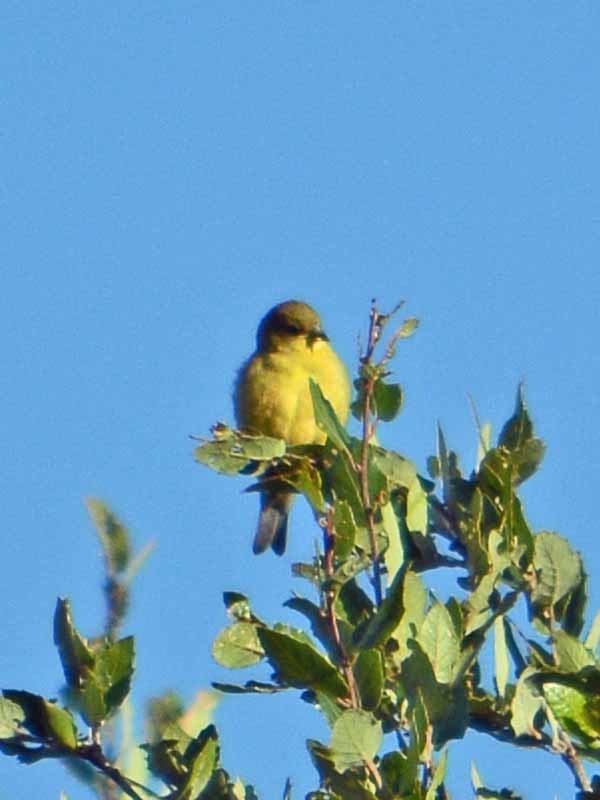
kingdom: Animalia
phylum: Chordata
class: Aves
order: Passeriformes
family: Fringillidae
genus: Spinus
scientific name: Spinus psaltria
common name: Lesser goldfinch
